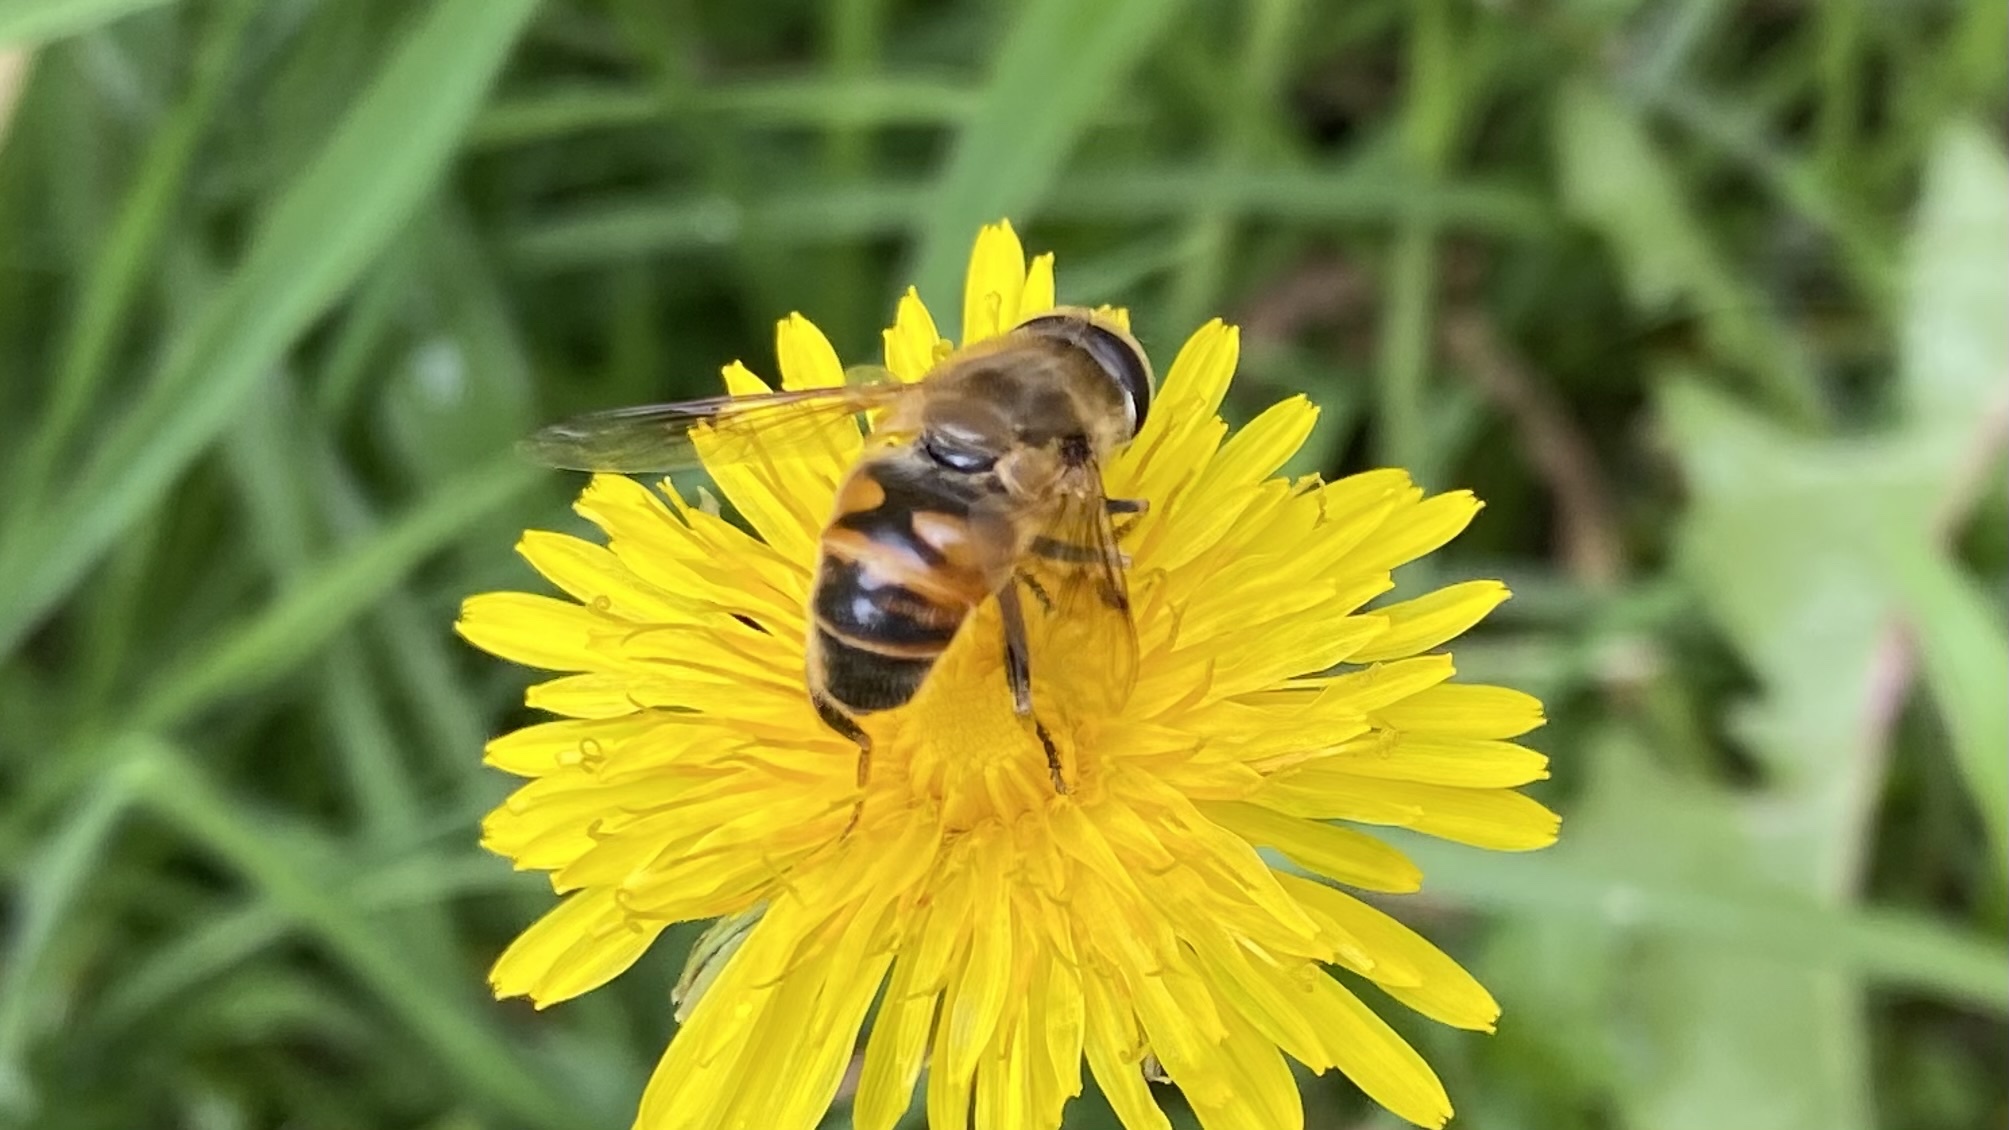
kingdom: Animalia
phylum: Arthropoda
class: Insecta
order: Diptera
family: Syrphidae
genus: Eristalis
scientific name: Eristalis tenax
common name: Drone fly
